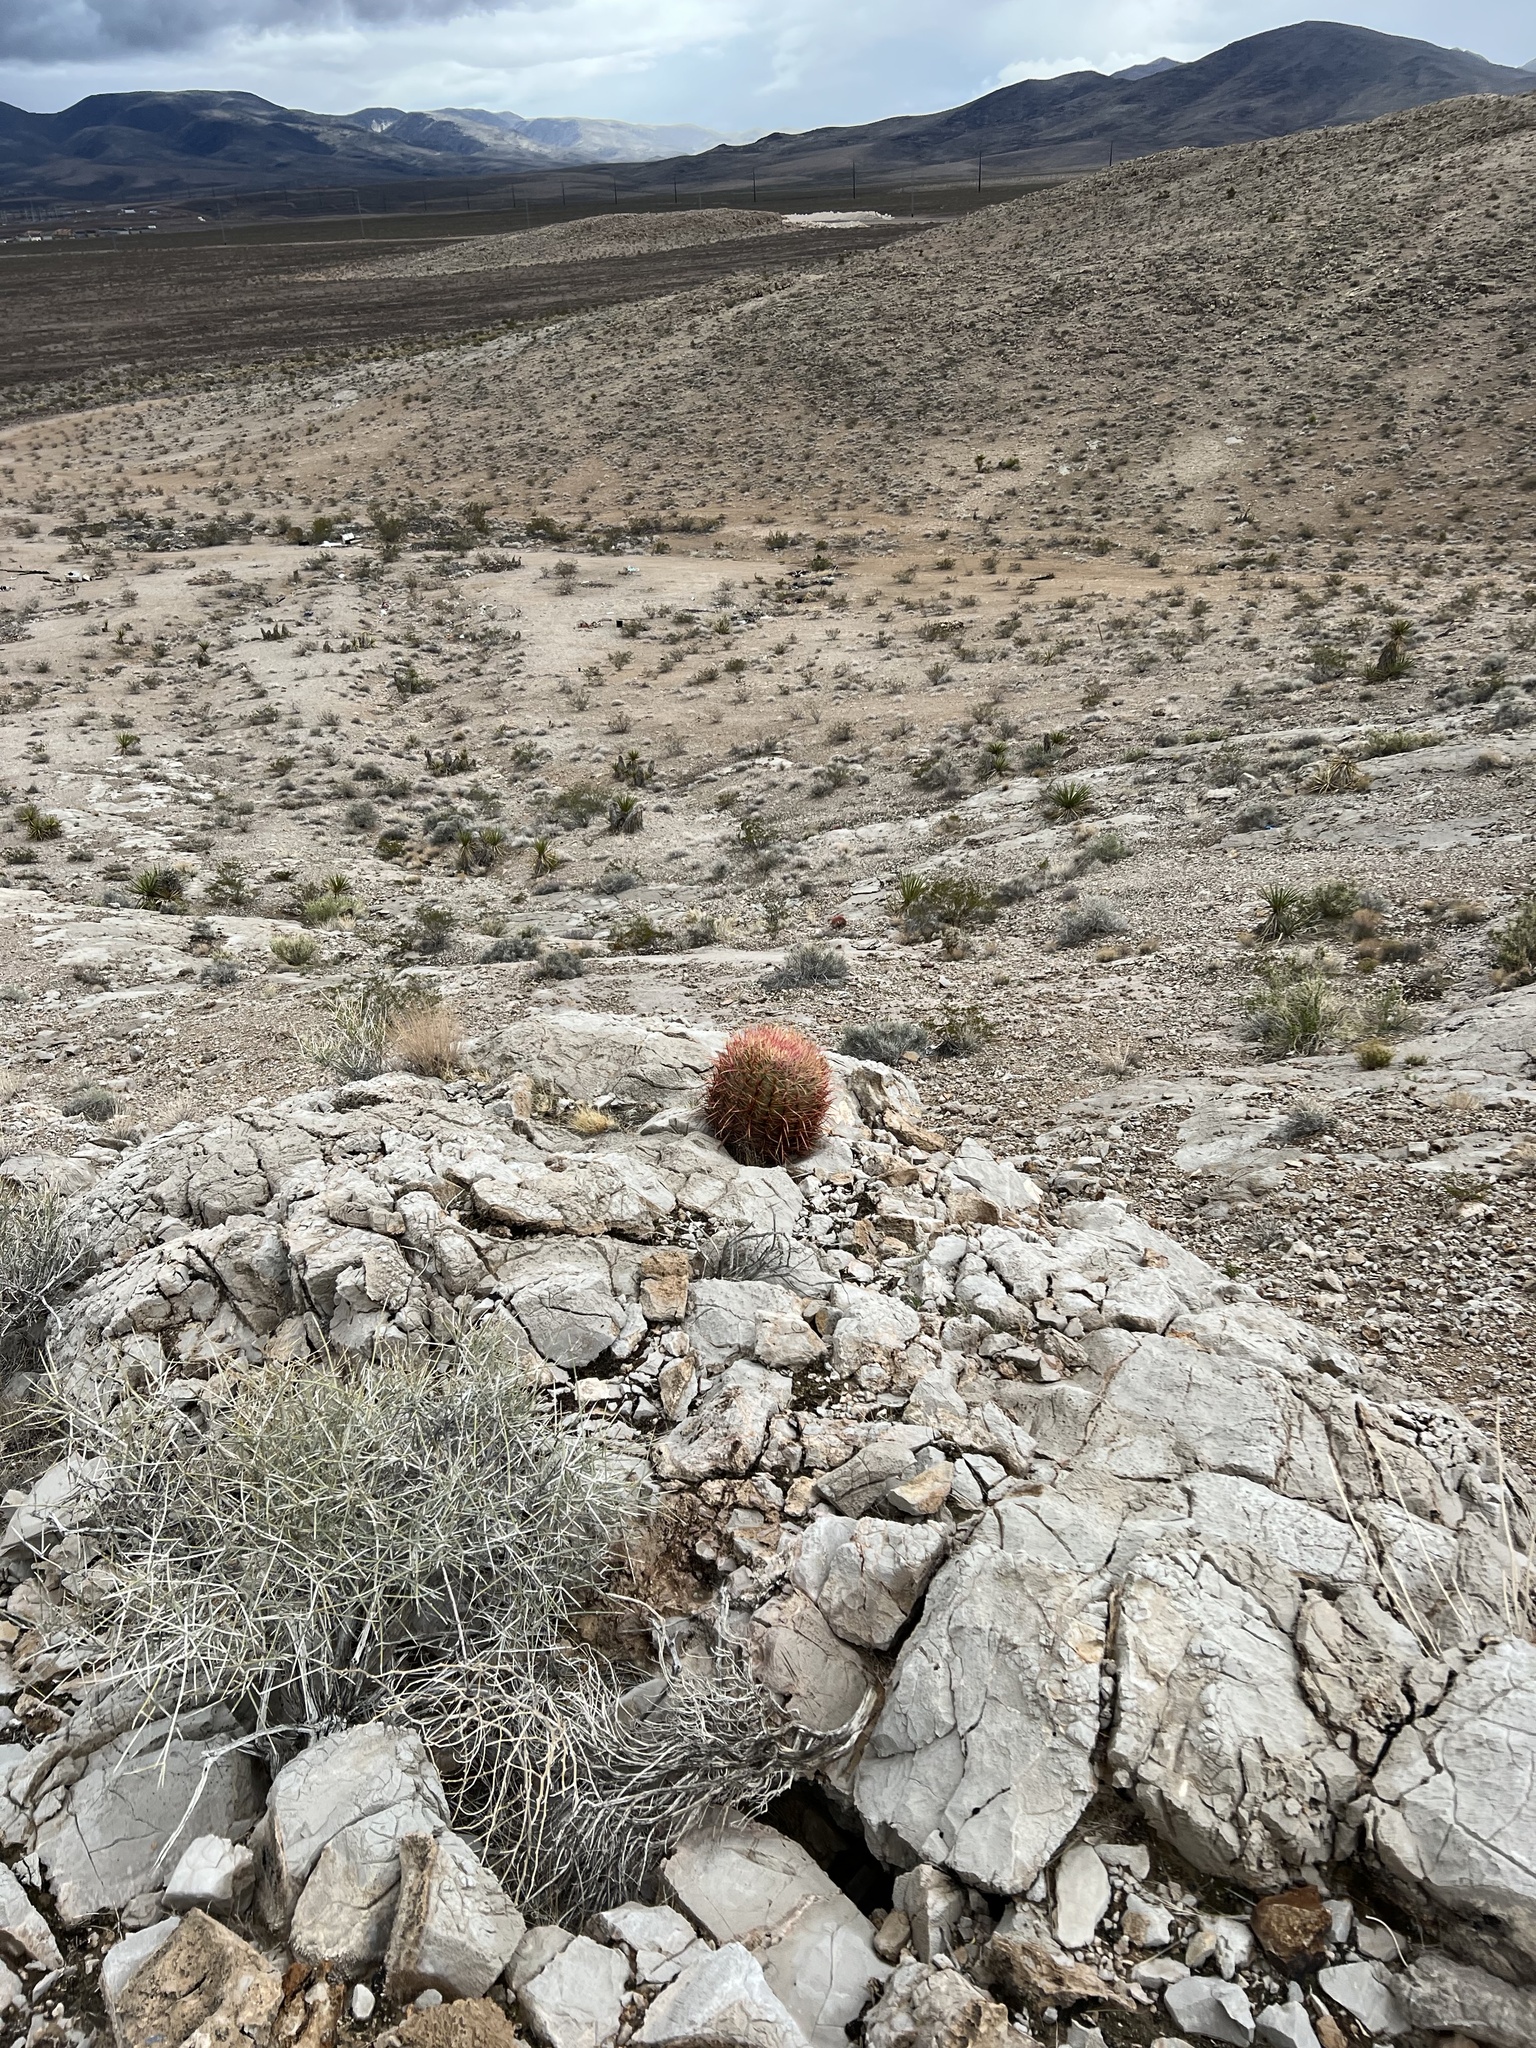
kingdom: Plantae
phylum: Tracheophyta
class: Magnoliopsida
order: Caryophyllales
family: Cactaceae
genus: Ferocactus
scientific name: Ferocactus cylindraceus
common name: California barrel cactus
